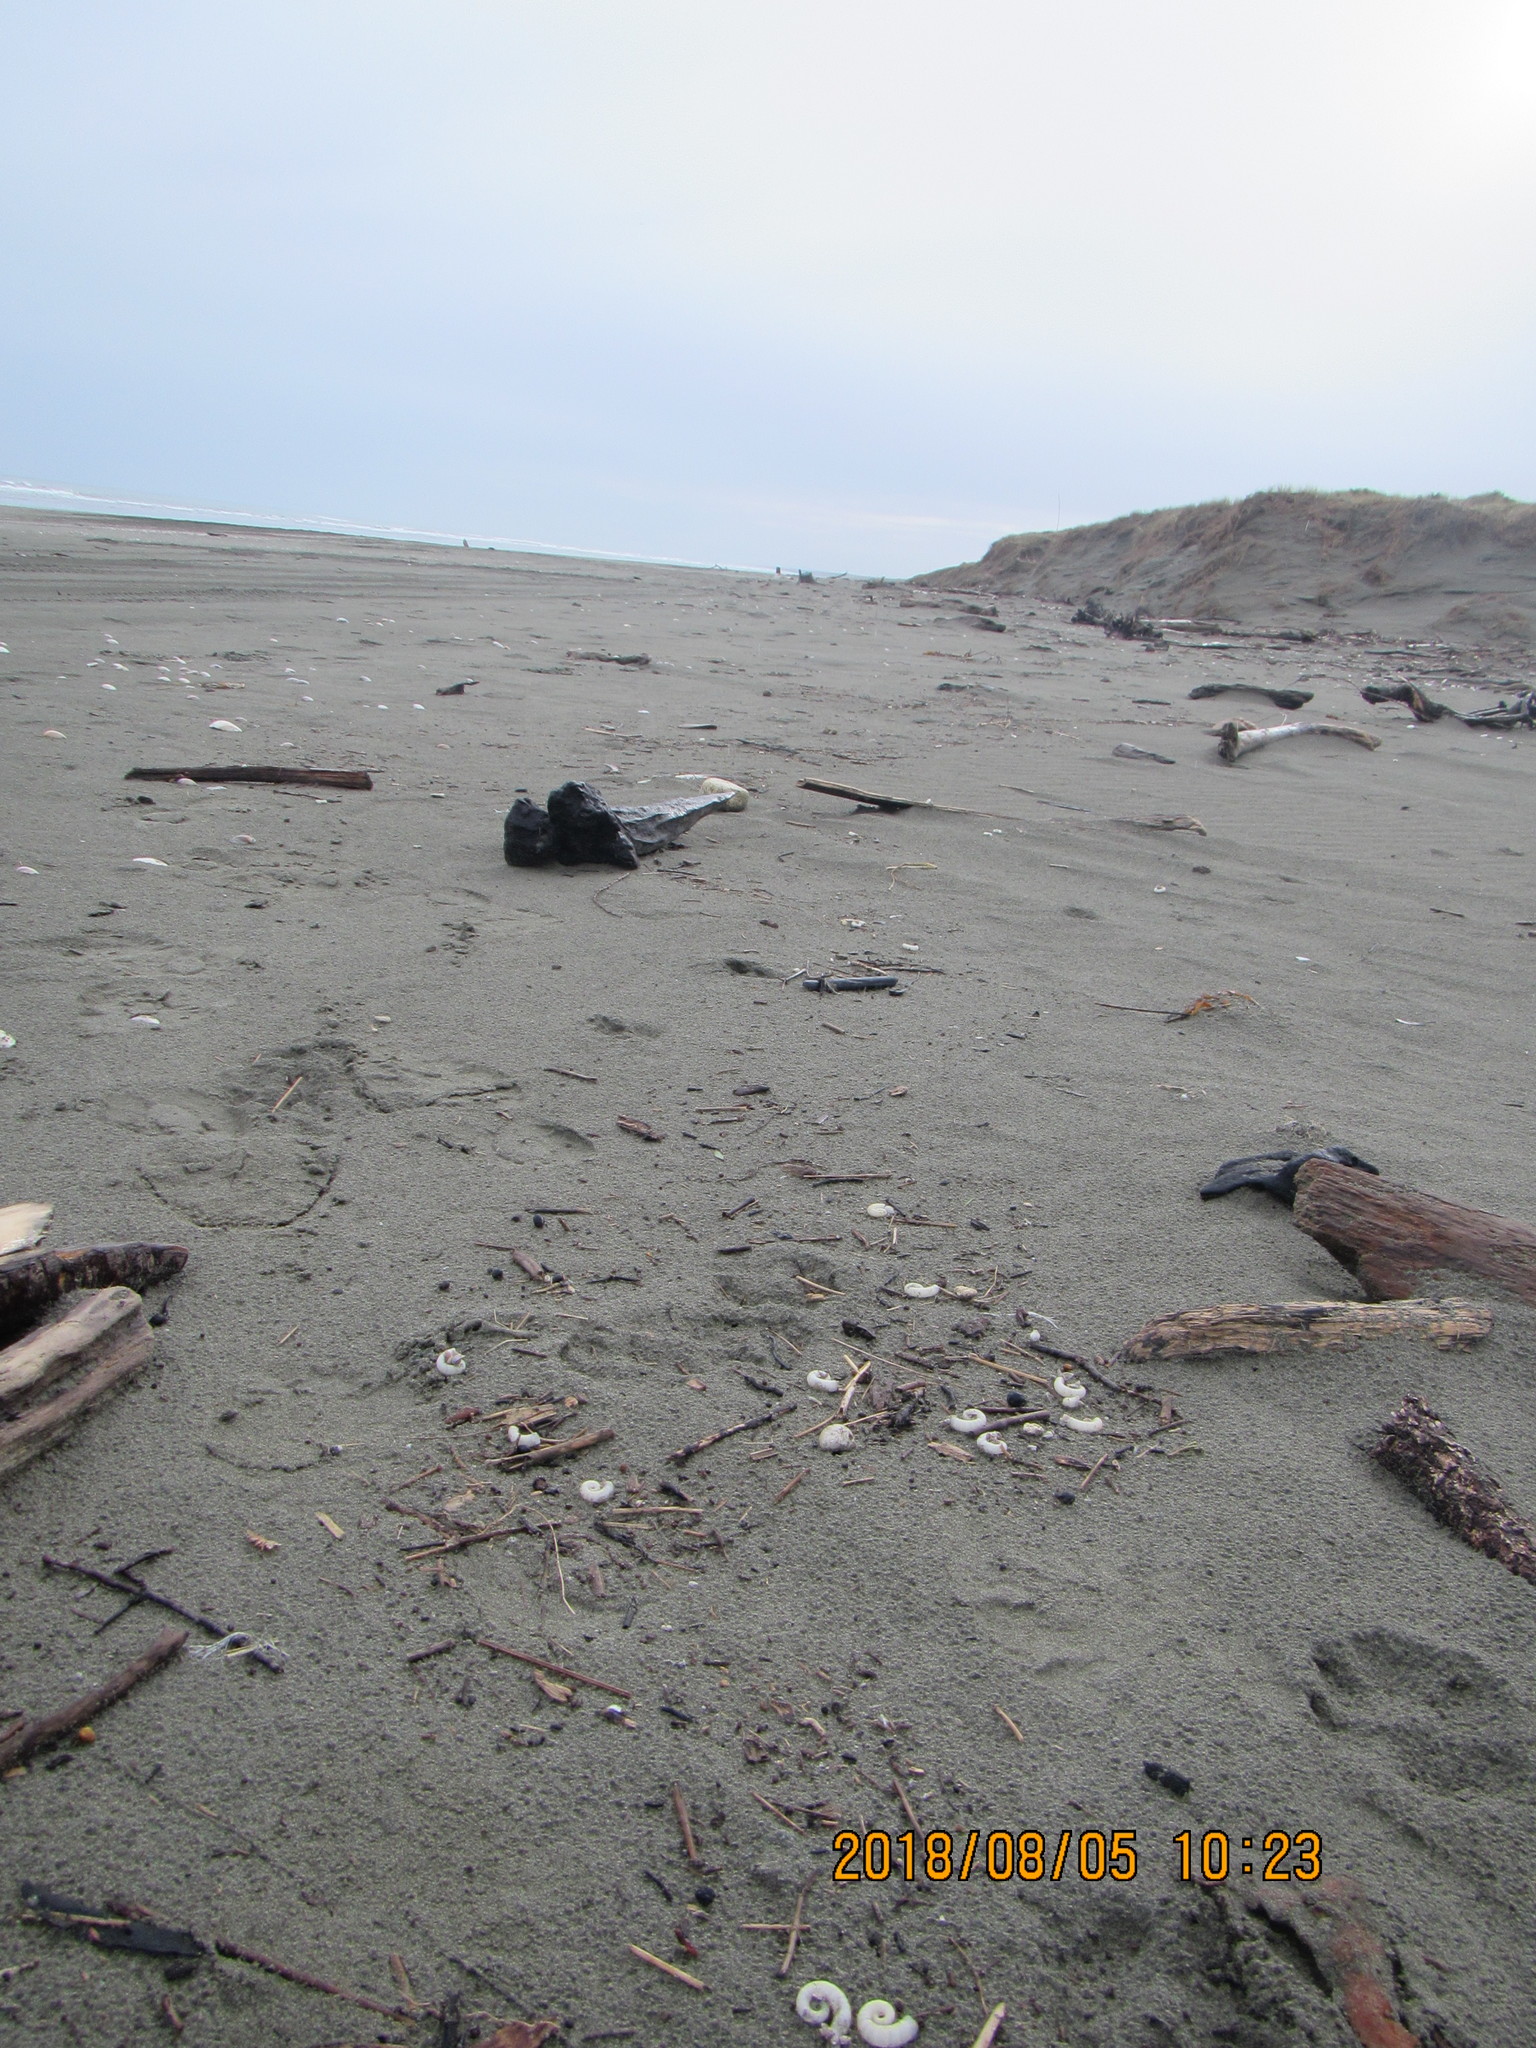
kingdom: Animalia
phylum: Arthropoda
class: Maxillopoda
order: Pedunculata
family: Lepadidae
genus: Lepas
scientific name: Lepas pectinata
